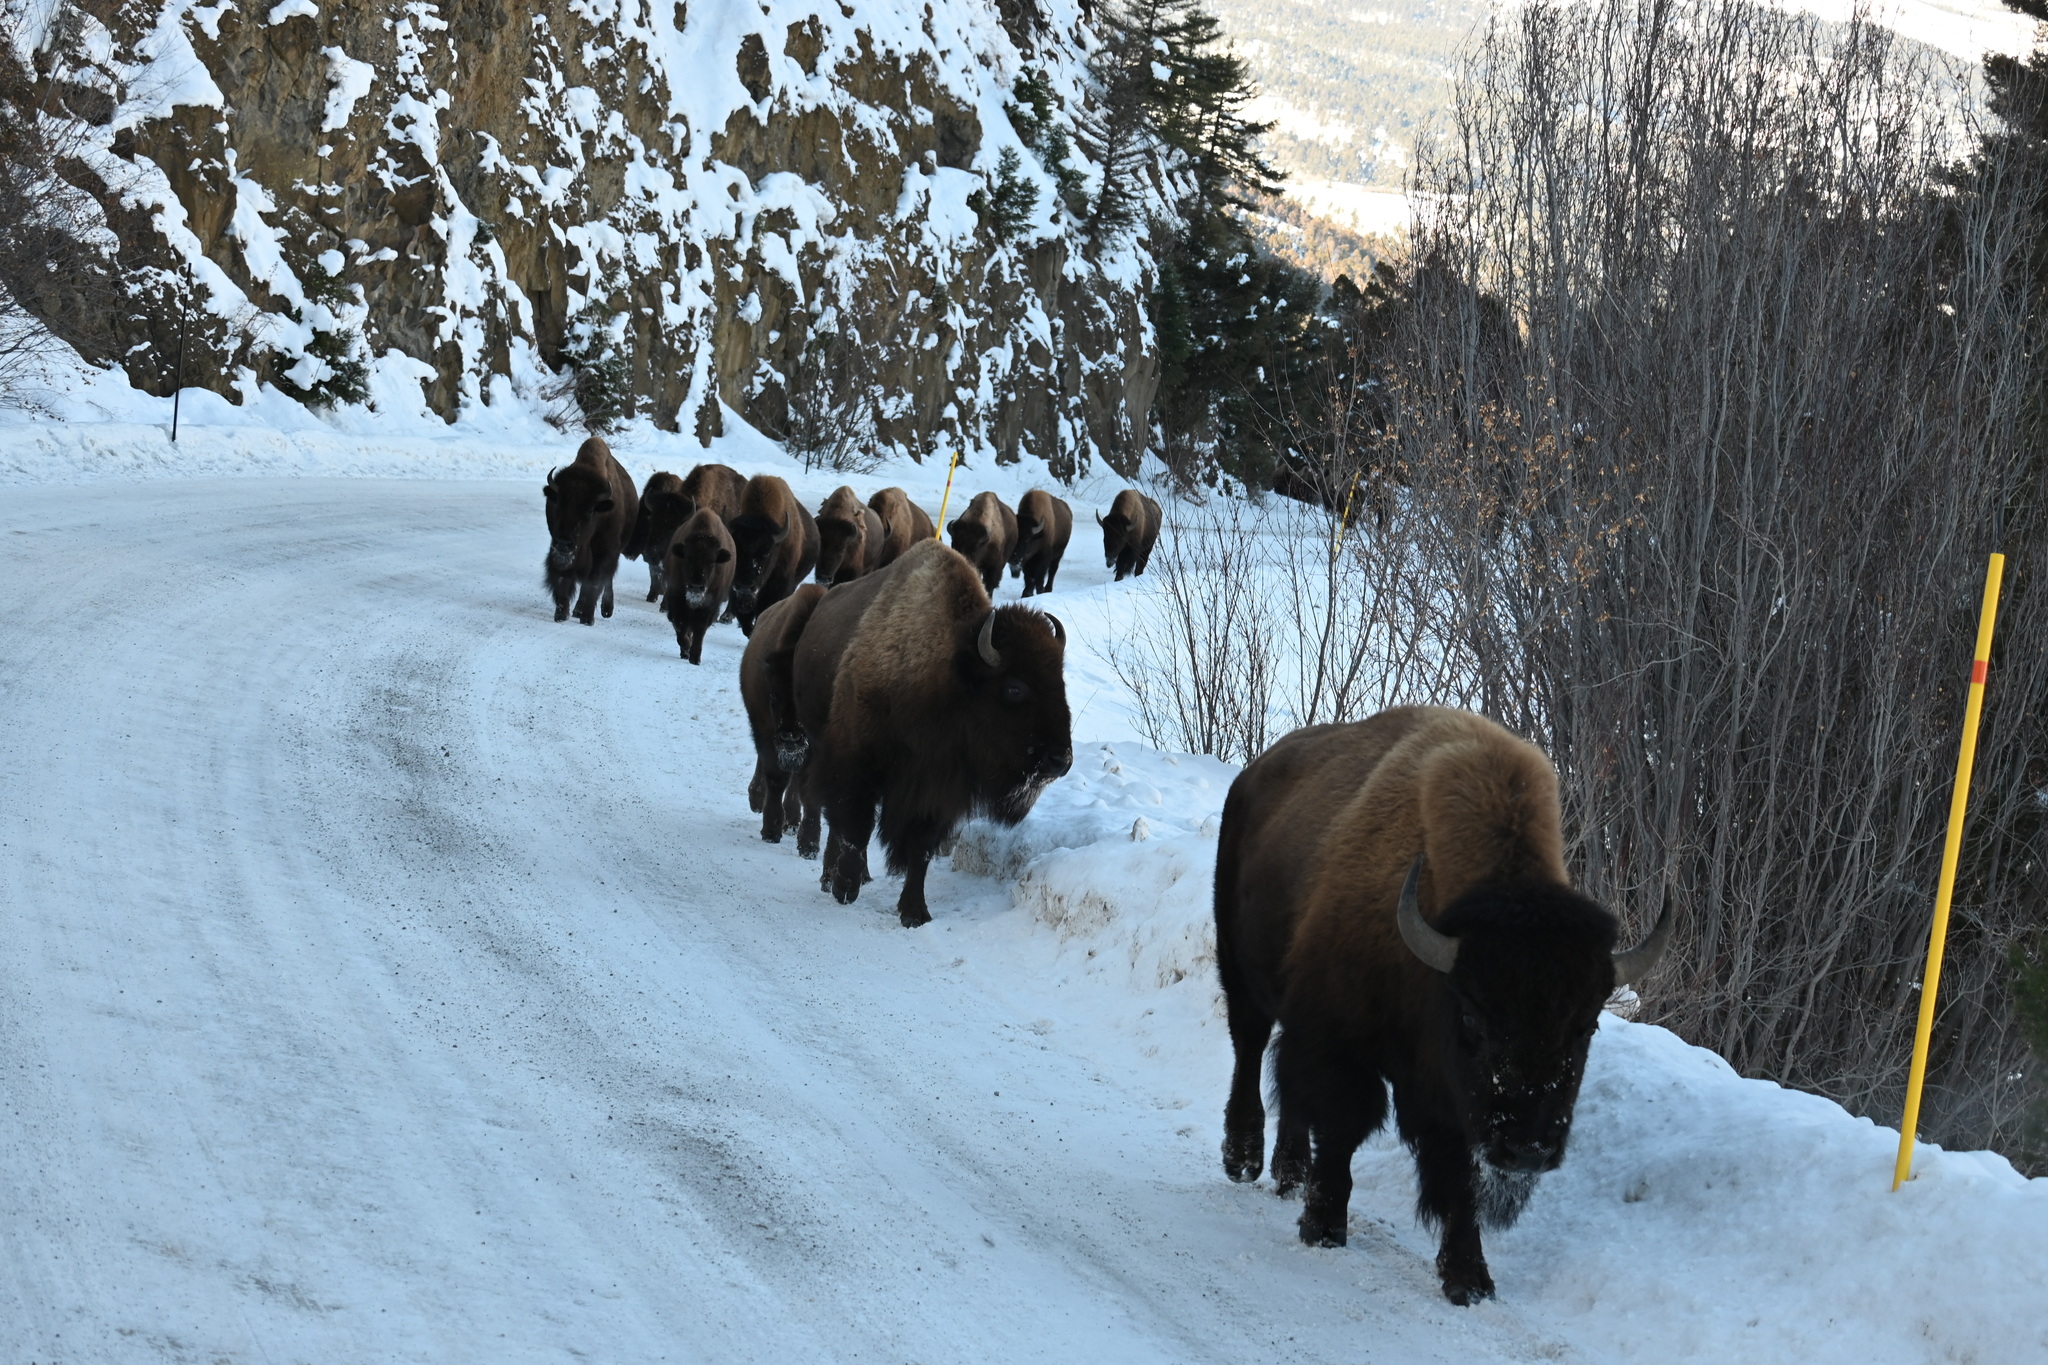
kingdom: Animalia
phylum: Chordata
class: Mammalia
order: Artiodactyla
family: Bovidae
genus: Bison
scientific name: Bison bison
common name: American bison
